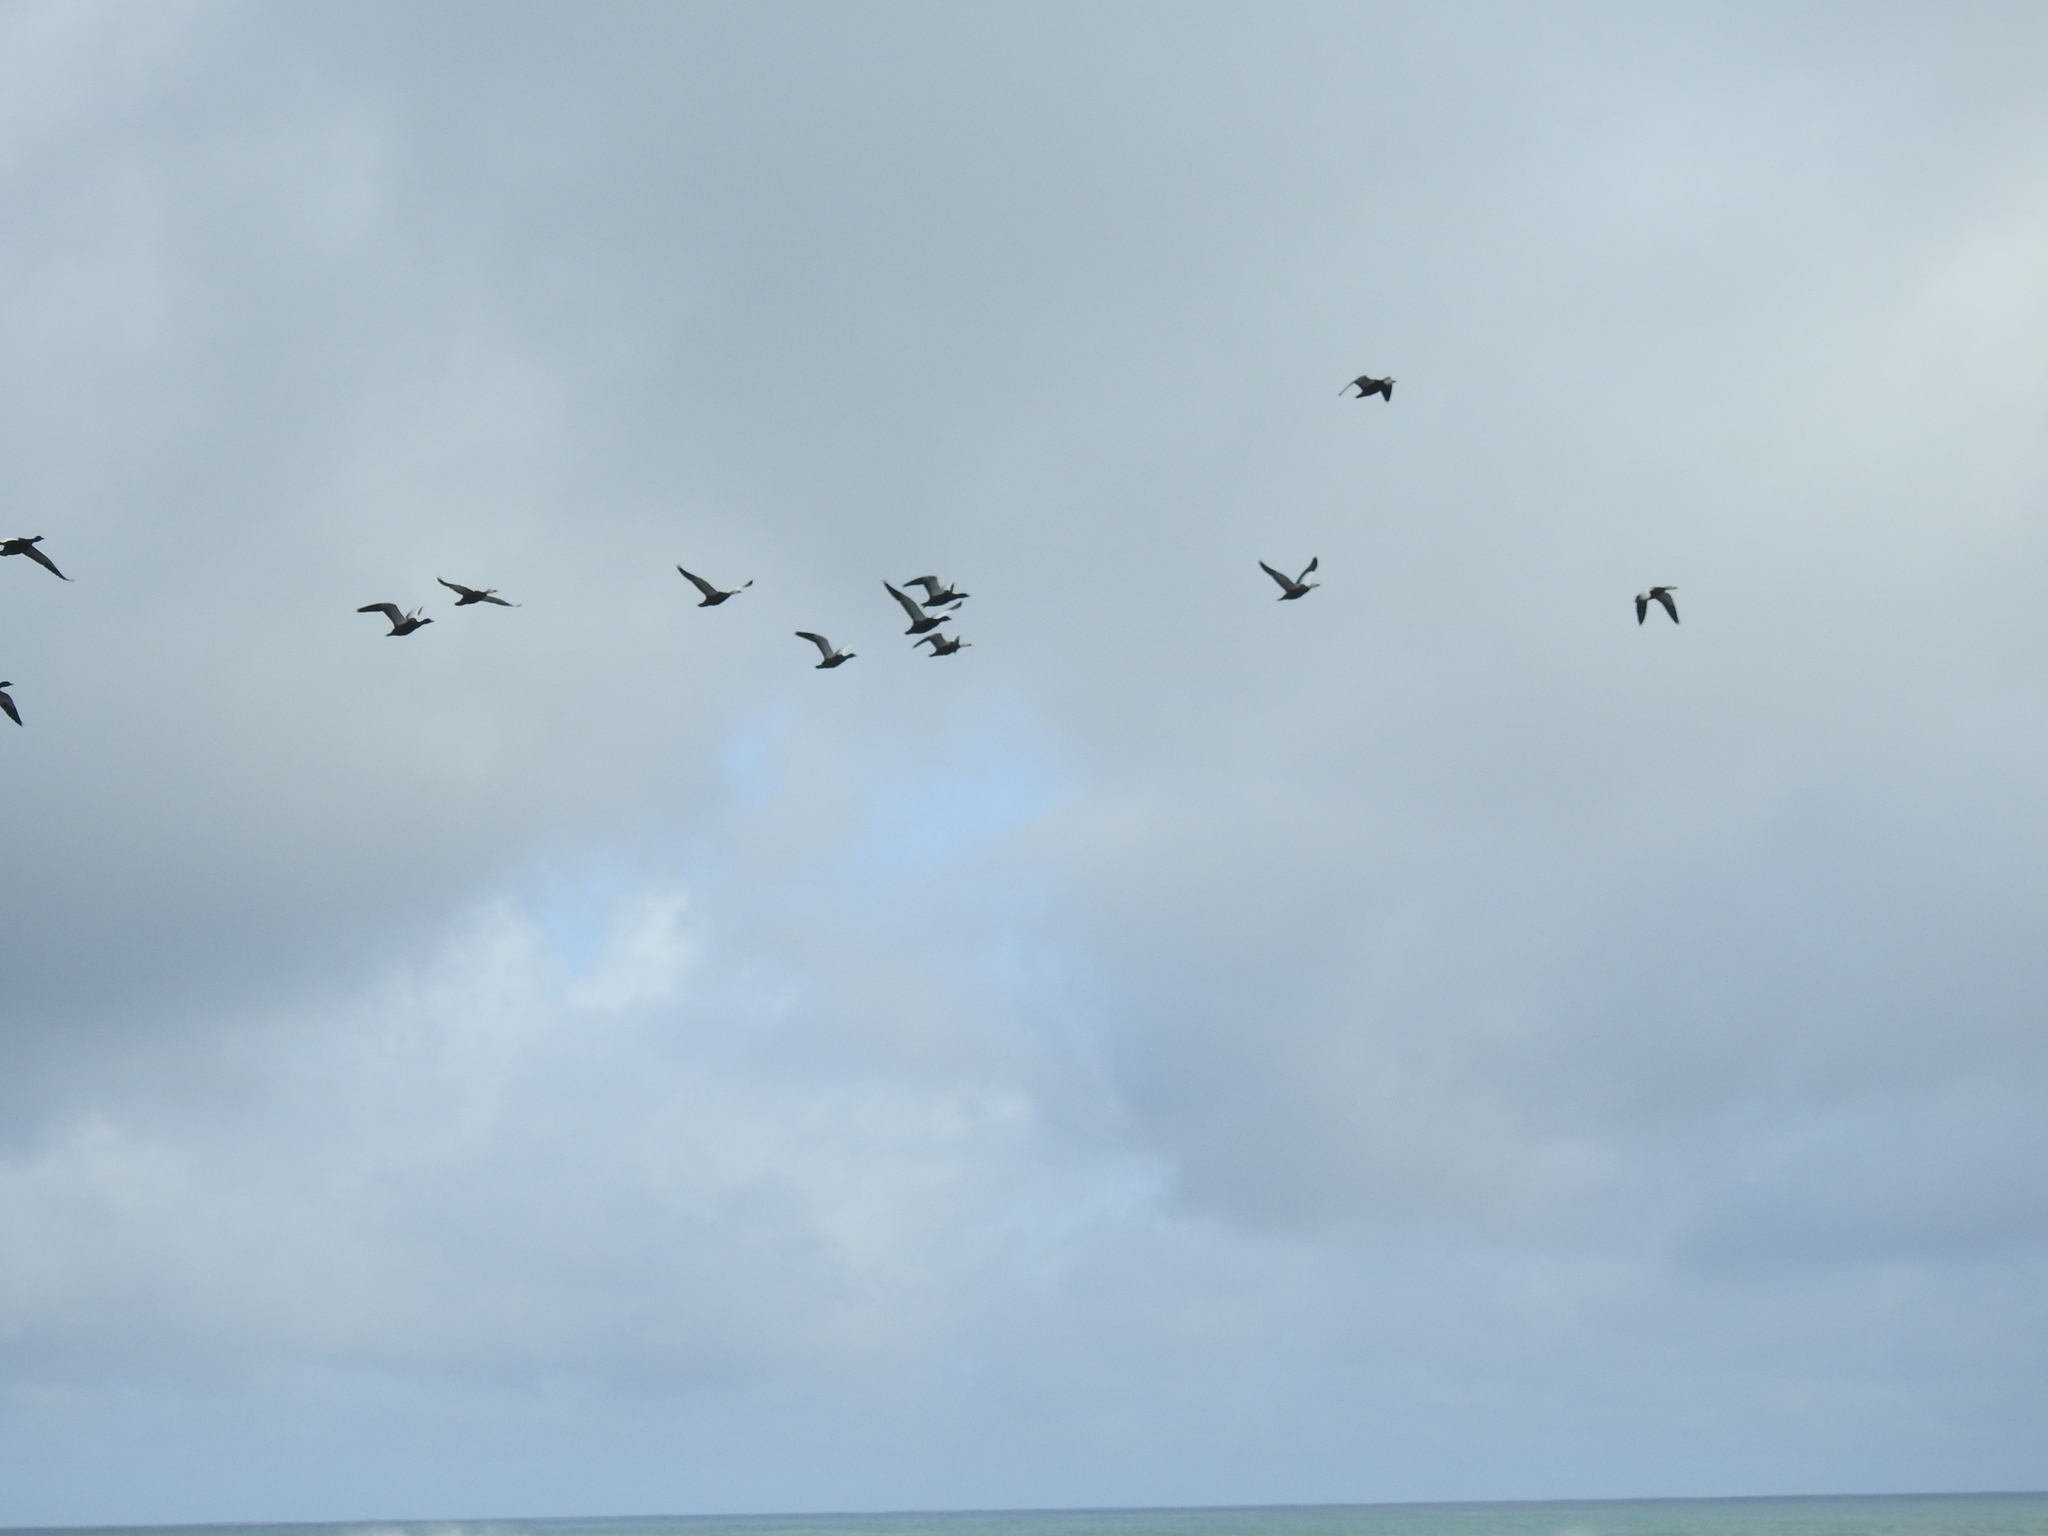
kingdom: Animalia
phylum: Chordata
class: Aves
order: Anseriformes
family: Anatidae
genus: Tadorna
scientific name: Tadorna variegata
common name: Paradise shelduck
